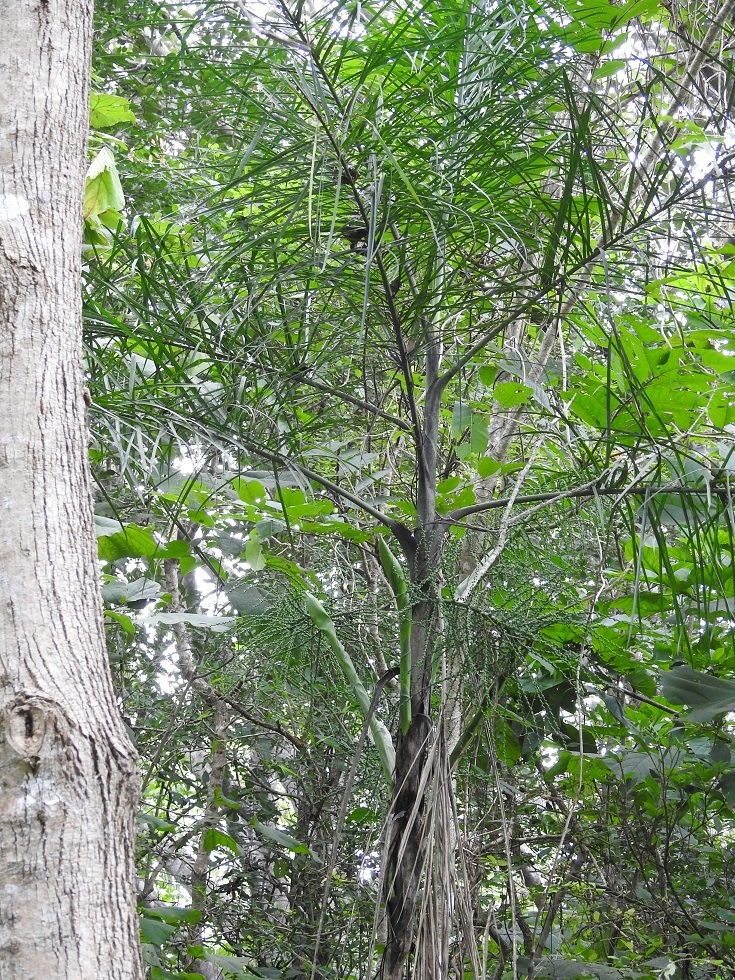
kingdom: Plantae
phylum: Tracheophyta
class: Liliopsida
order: Arecales
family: Arecaceae
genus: Chamaedorea
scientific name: Chamaedorea glaucifolia
